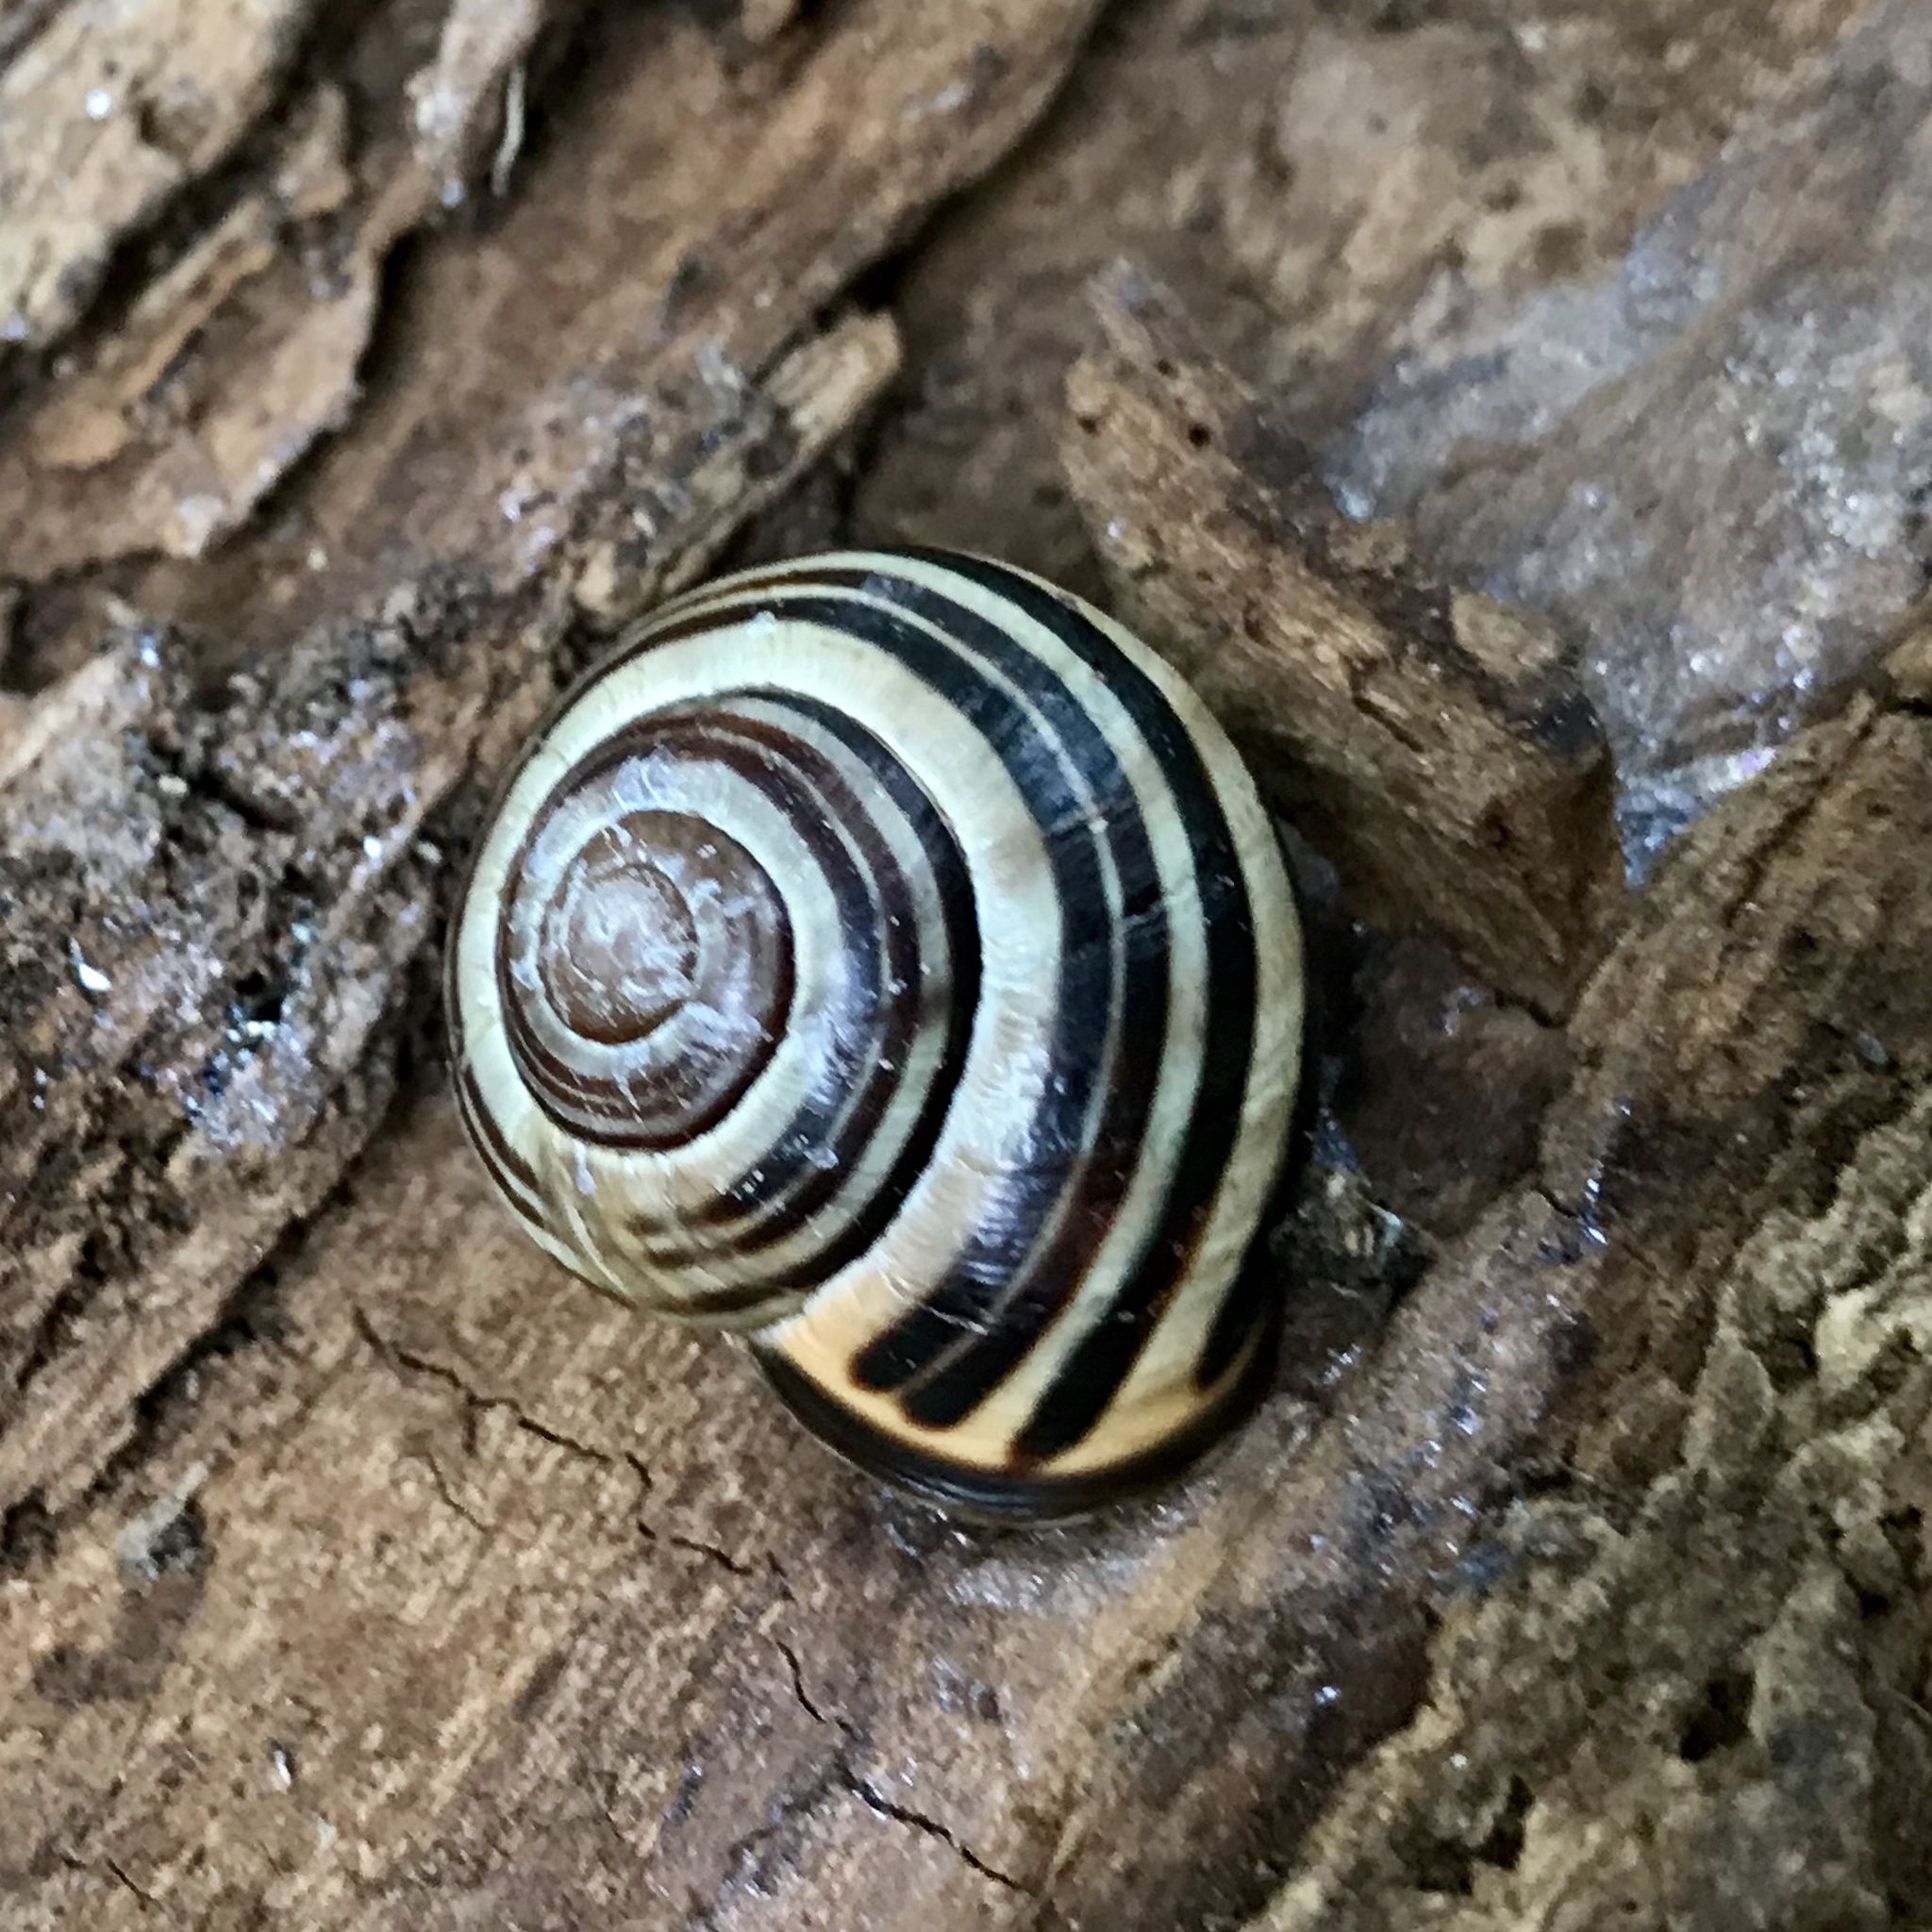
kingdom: Animalia
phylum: Mollusca
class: Gastropoda
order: Stylommatophora
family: Helicidae
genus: Cepaea
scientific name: Cepaea nemoralis
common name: Grovesnail
